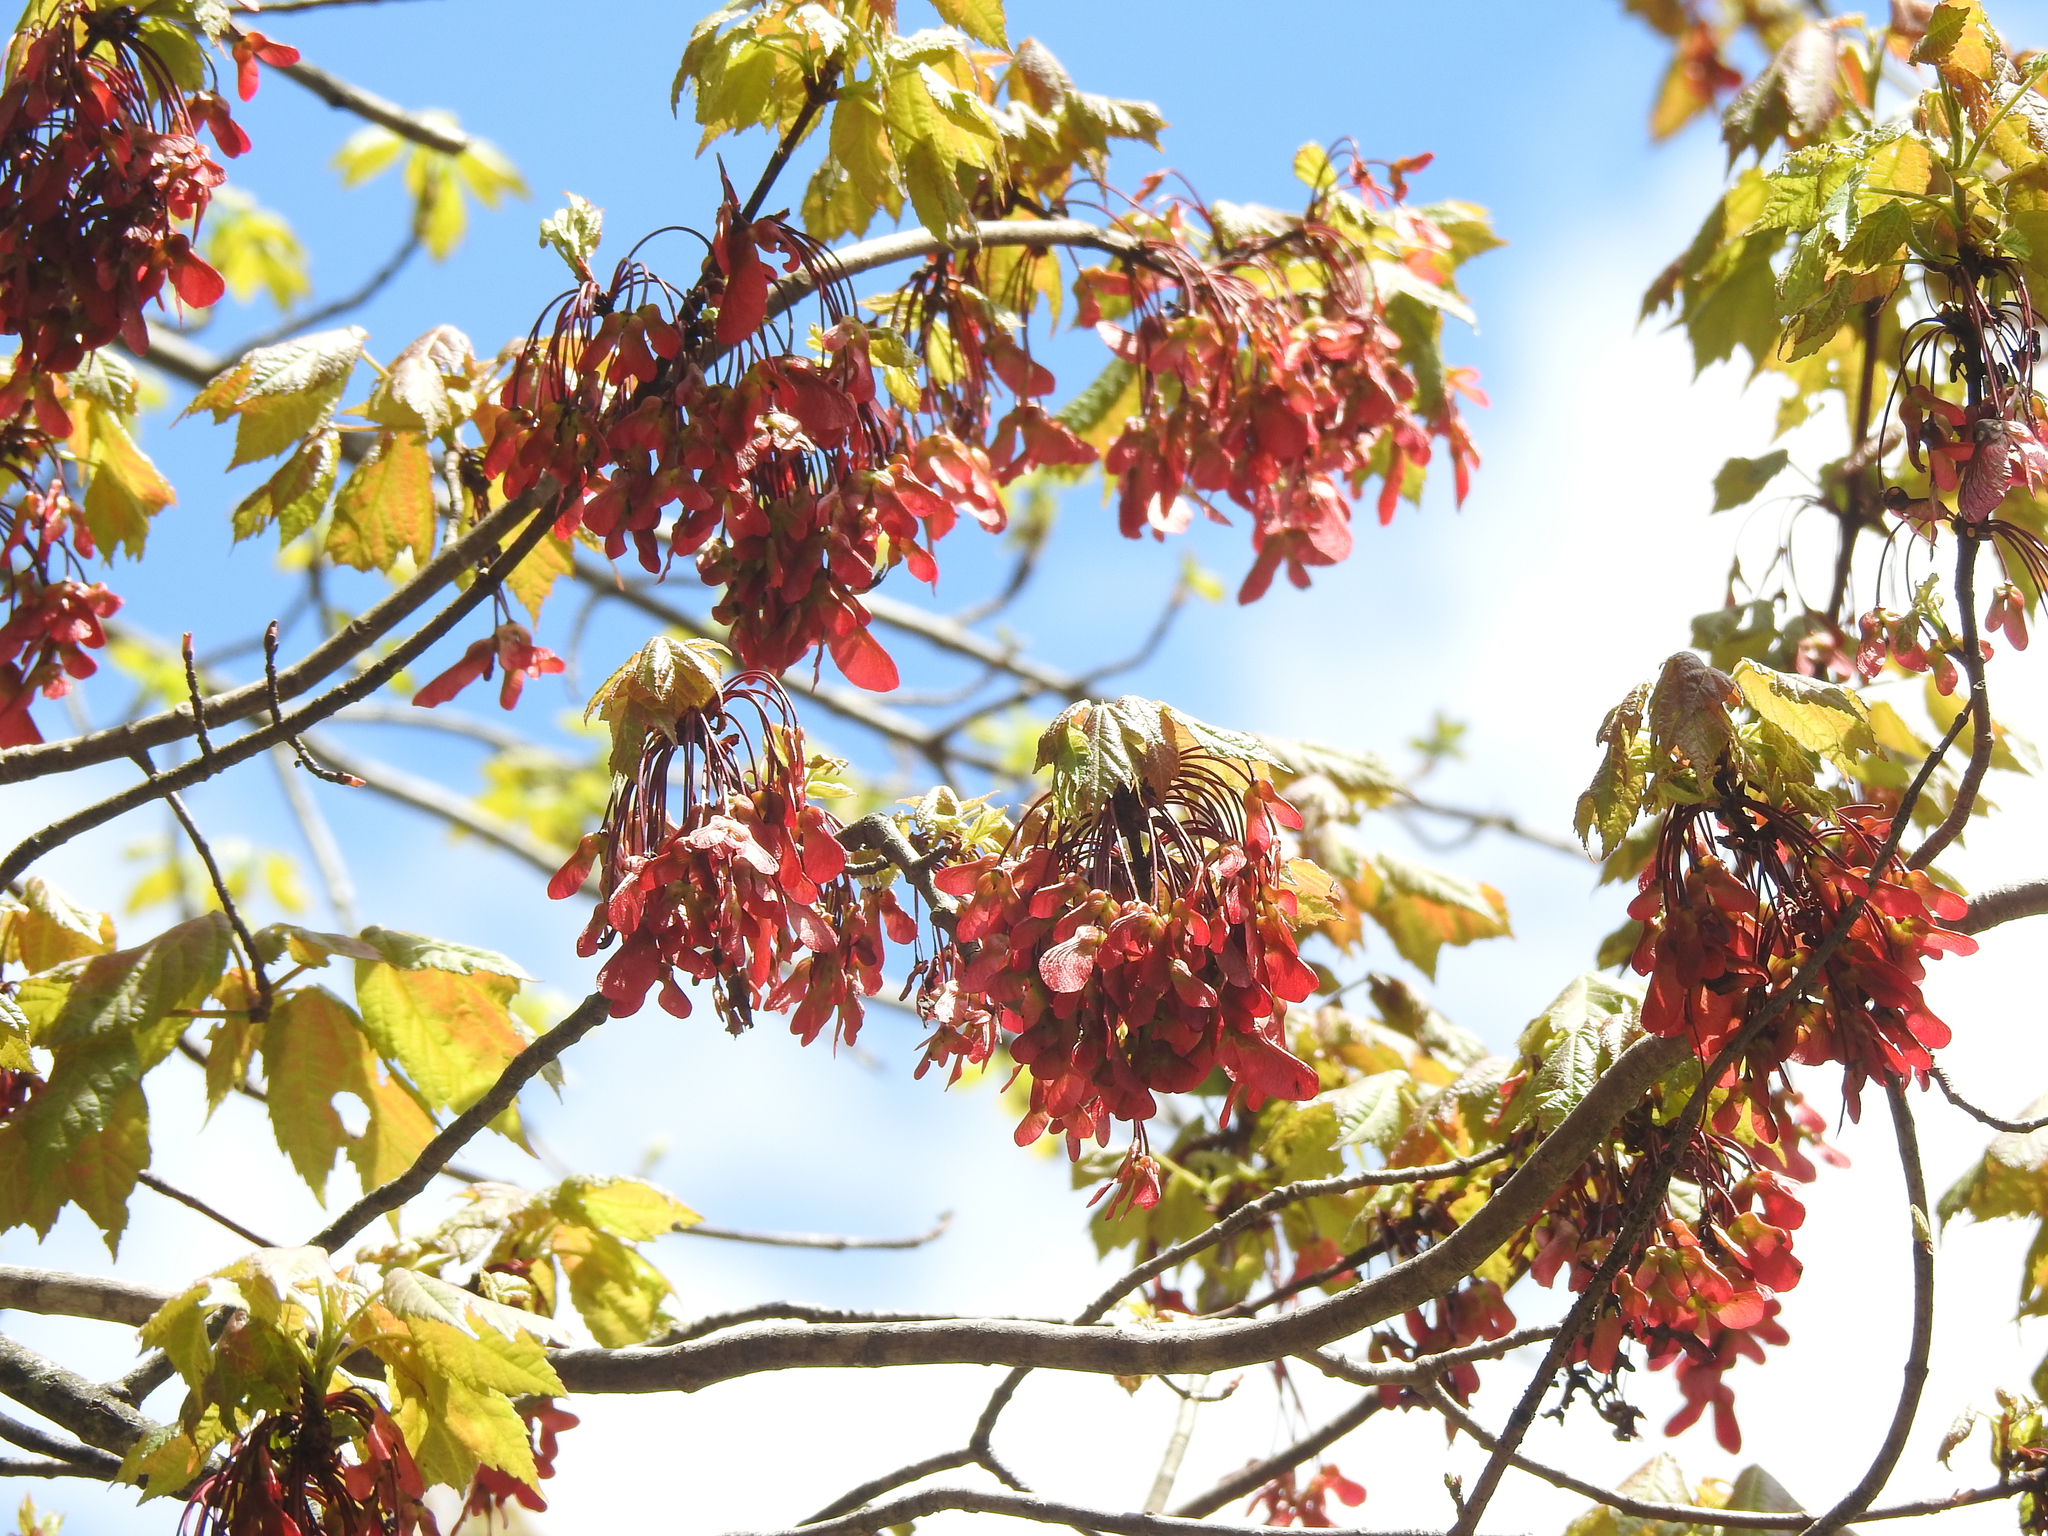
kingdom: Plantae
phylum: Tracheophyta
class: Magnoliopsida
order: Sapindales
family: Sapindaceae
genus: Acer
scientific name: Acer rubrum
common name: Red maple
